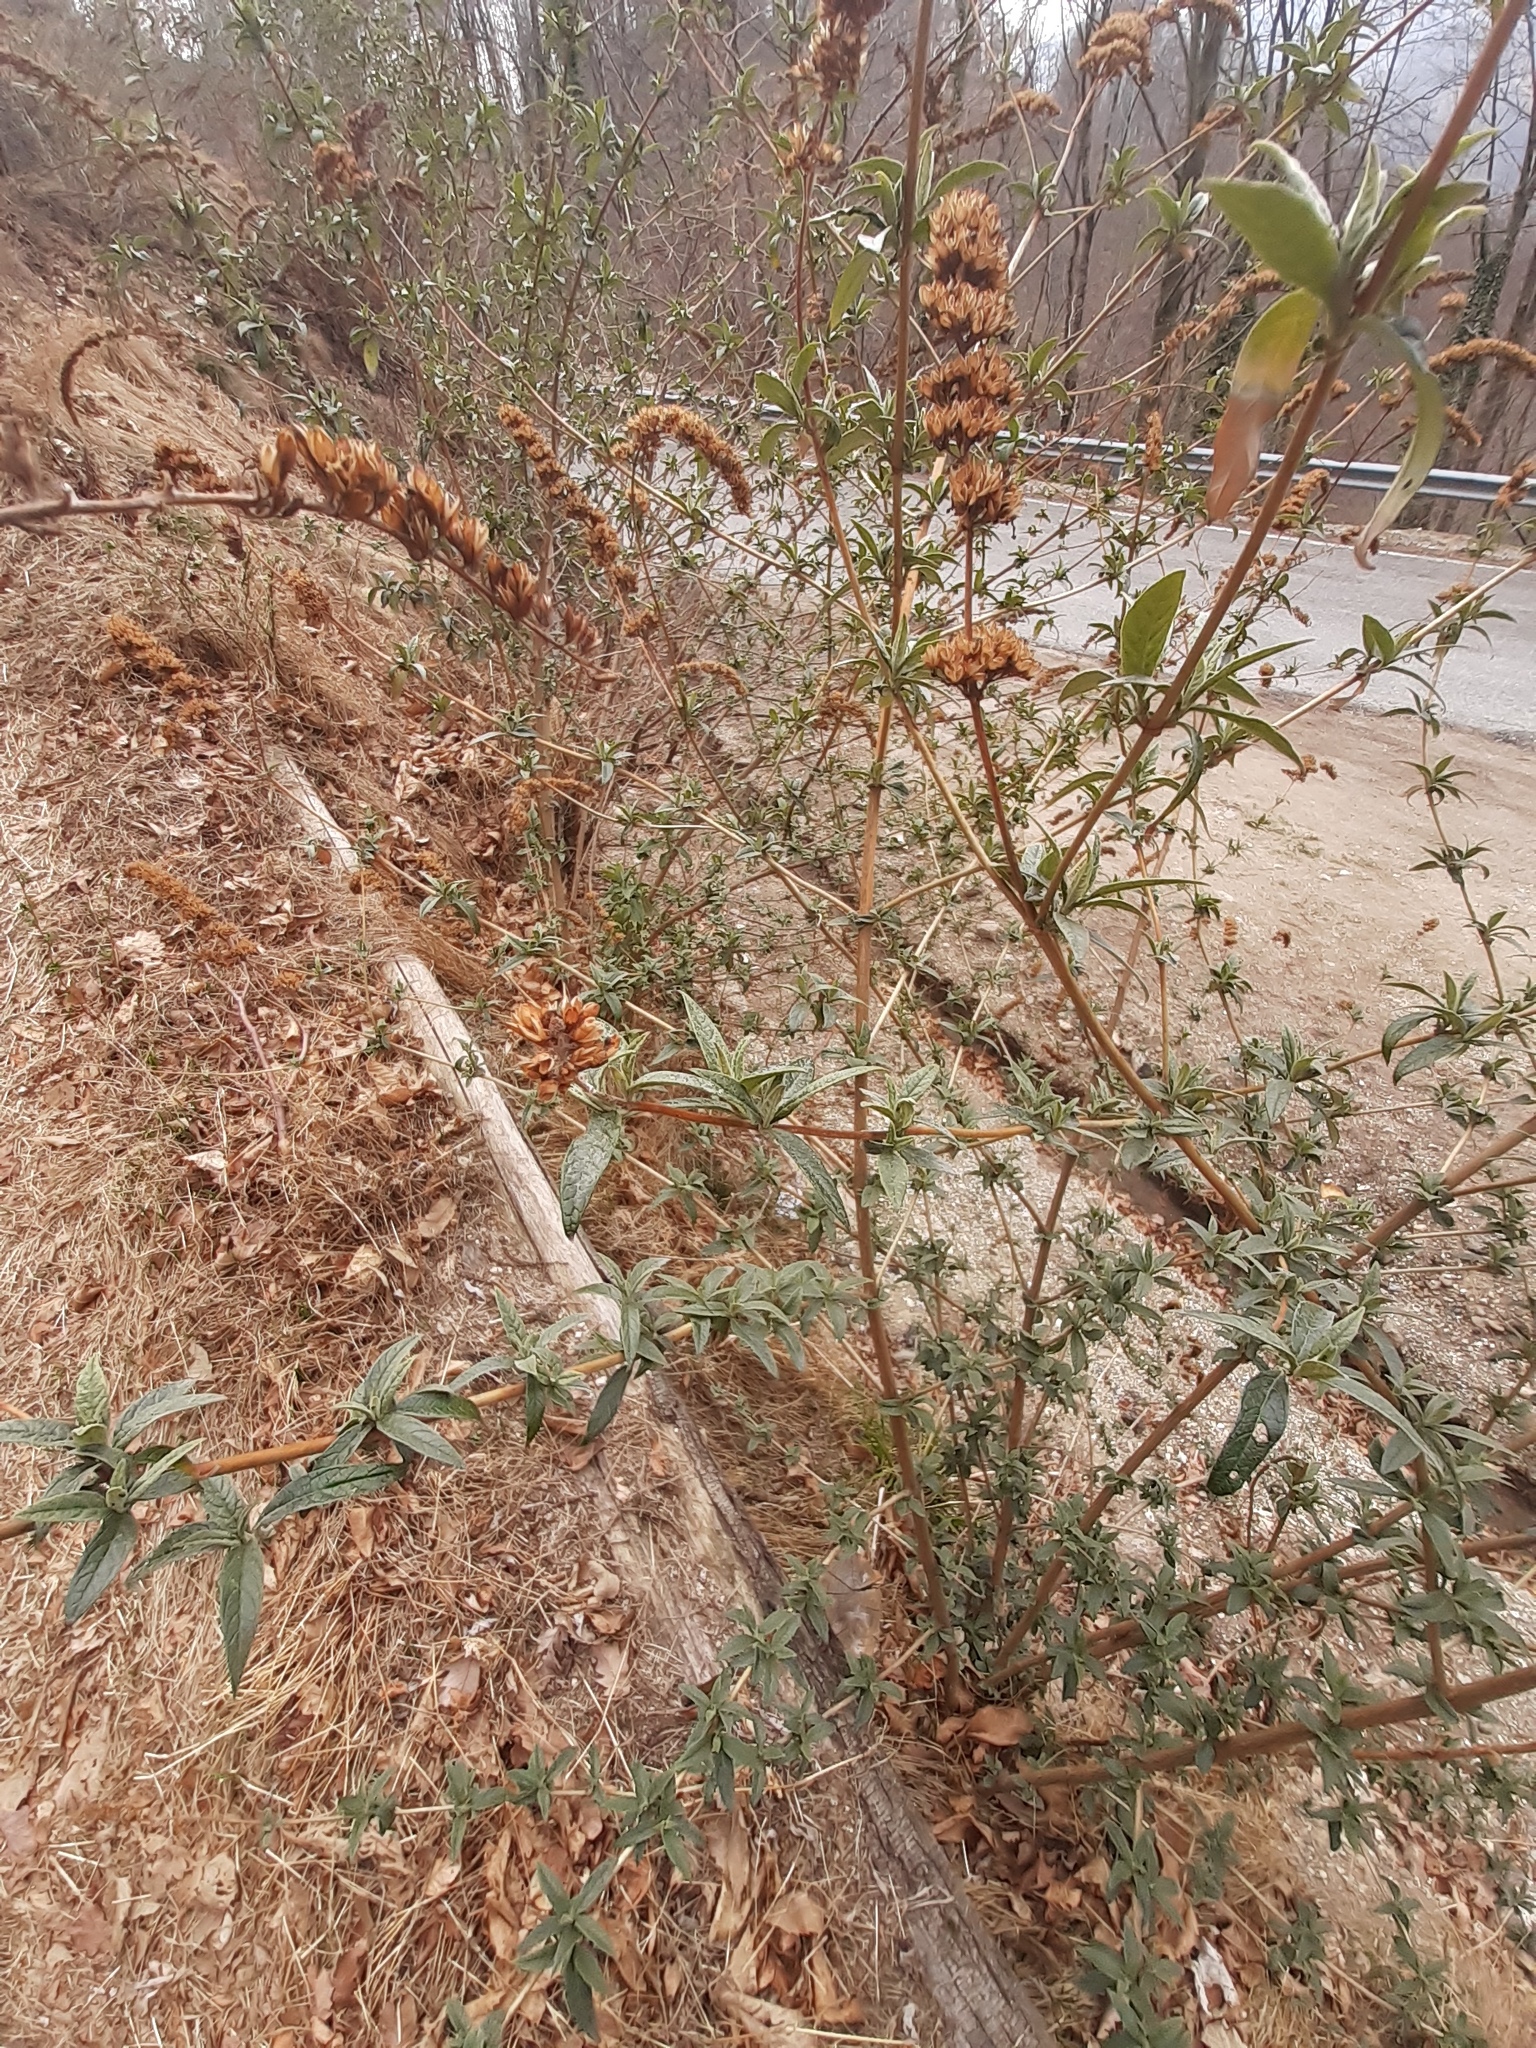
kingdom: Plantae
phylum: Tracheophyta
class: Magnoliopsida
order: Lamiales
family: Scrophulariaceae
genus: Buddleja
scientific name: Buddleja davidii
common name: Butterfly-bush
